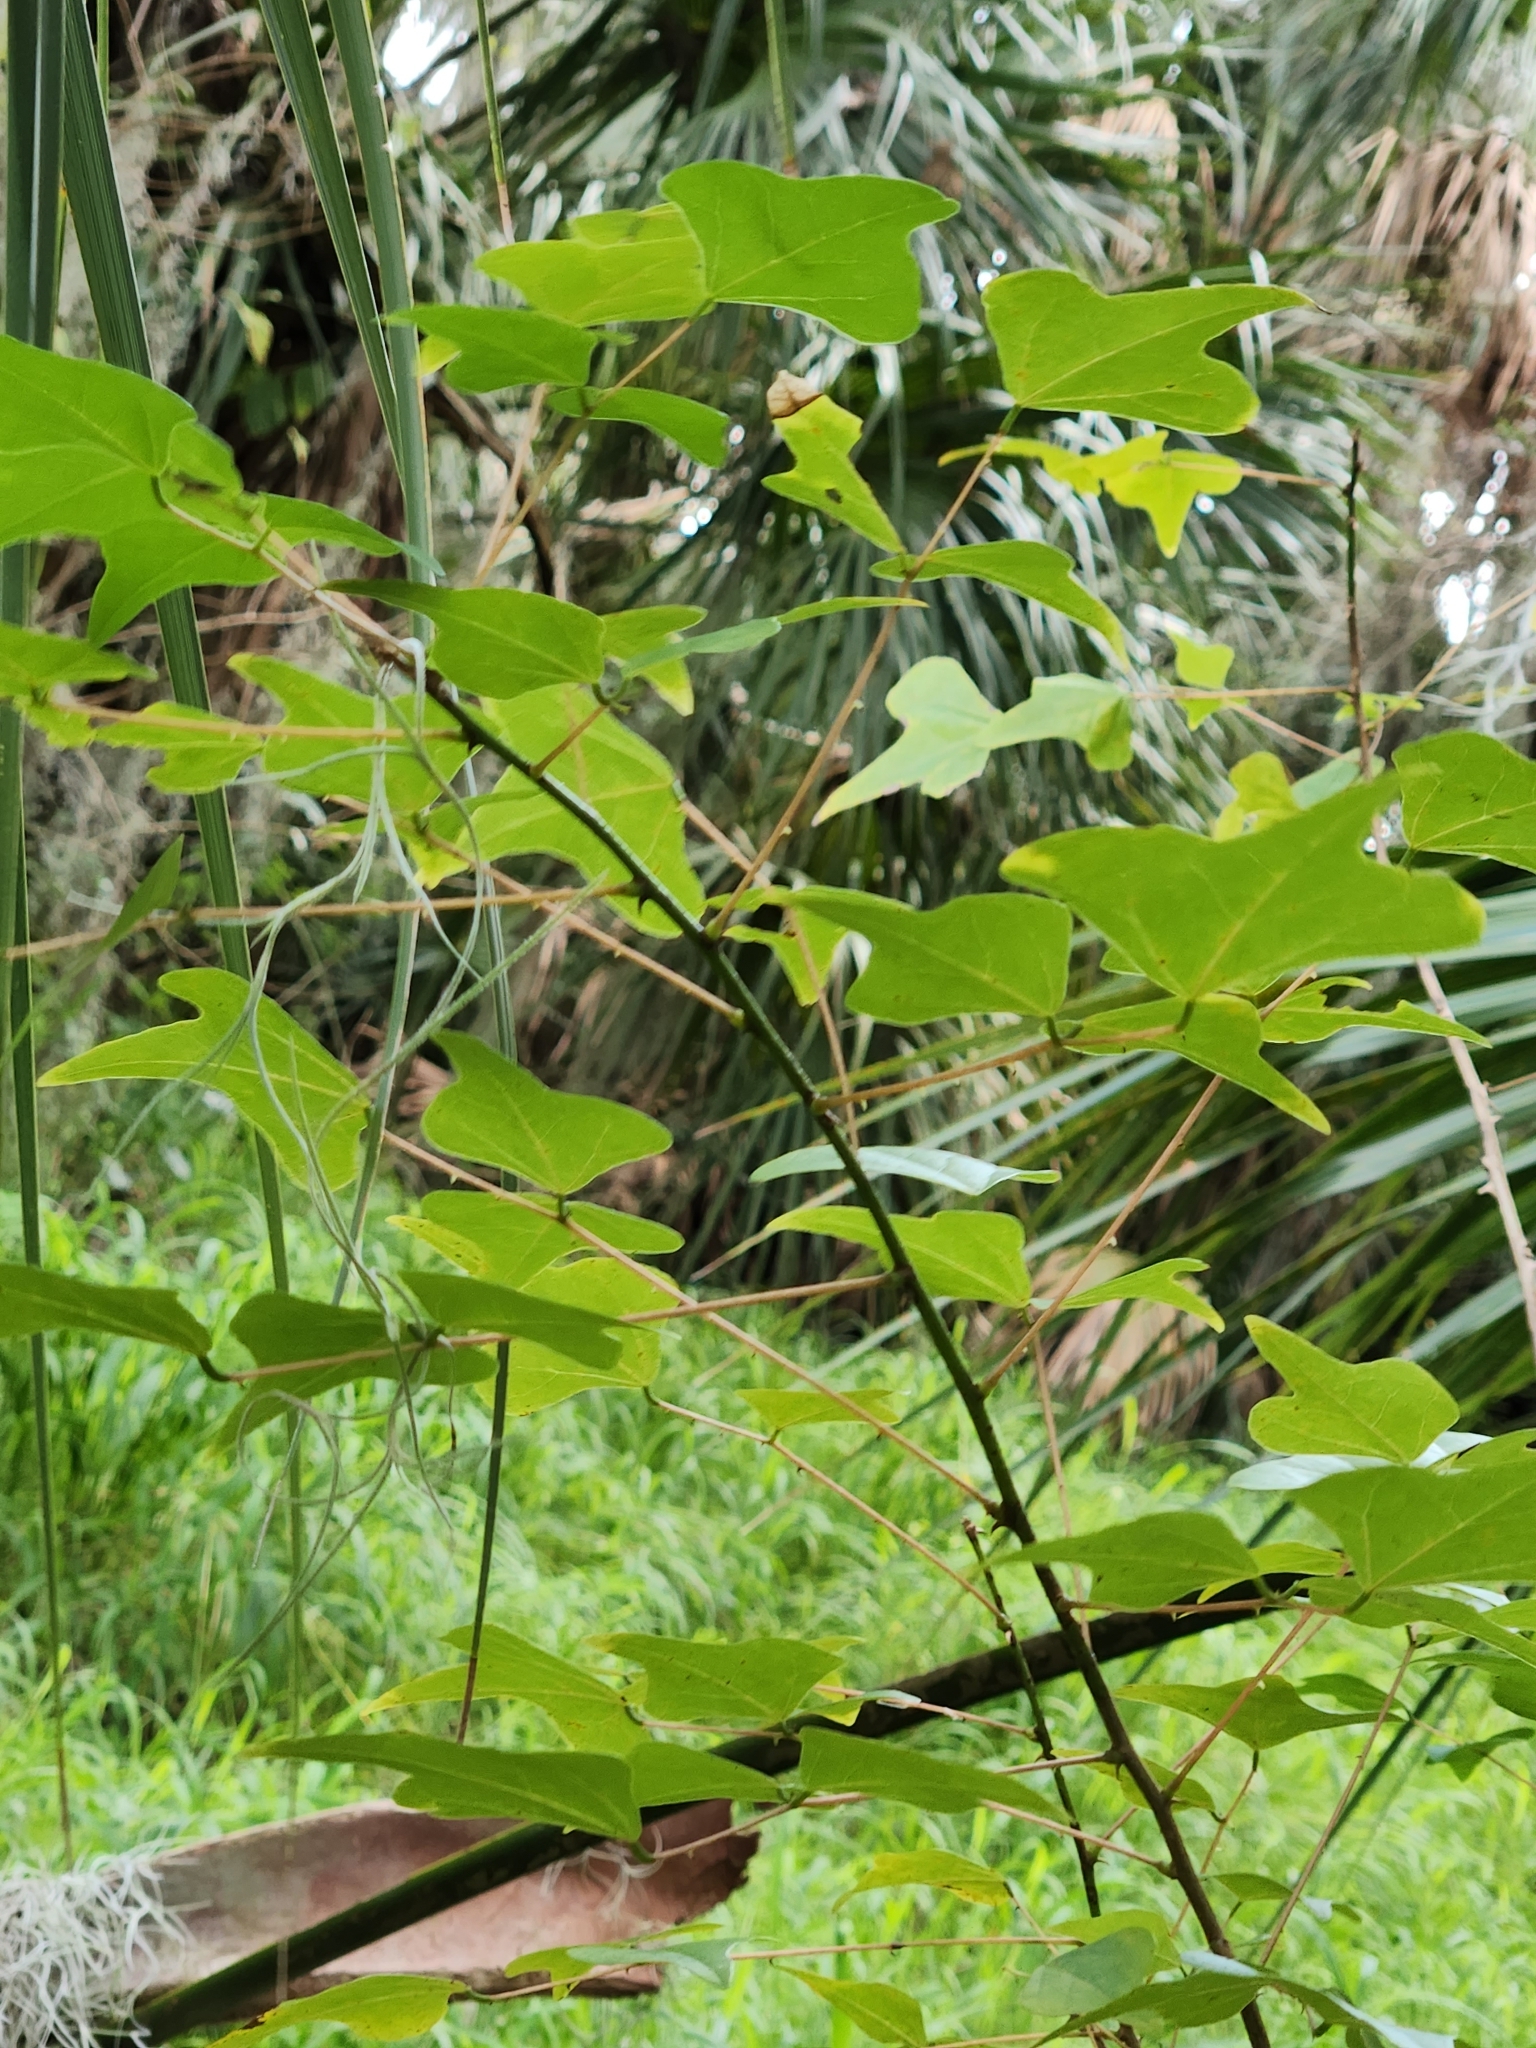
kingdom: Plantae
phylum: Tracheophyta
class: Magnoliopsida
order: Fabales
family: Fabaceae
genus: Erythrina
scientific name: Erythrina herbacea
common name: Coral-bean
